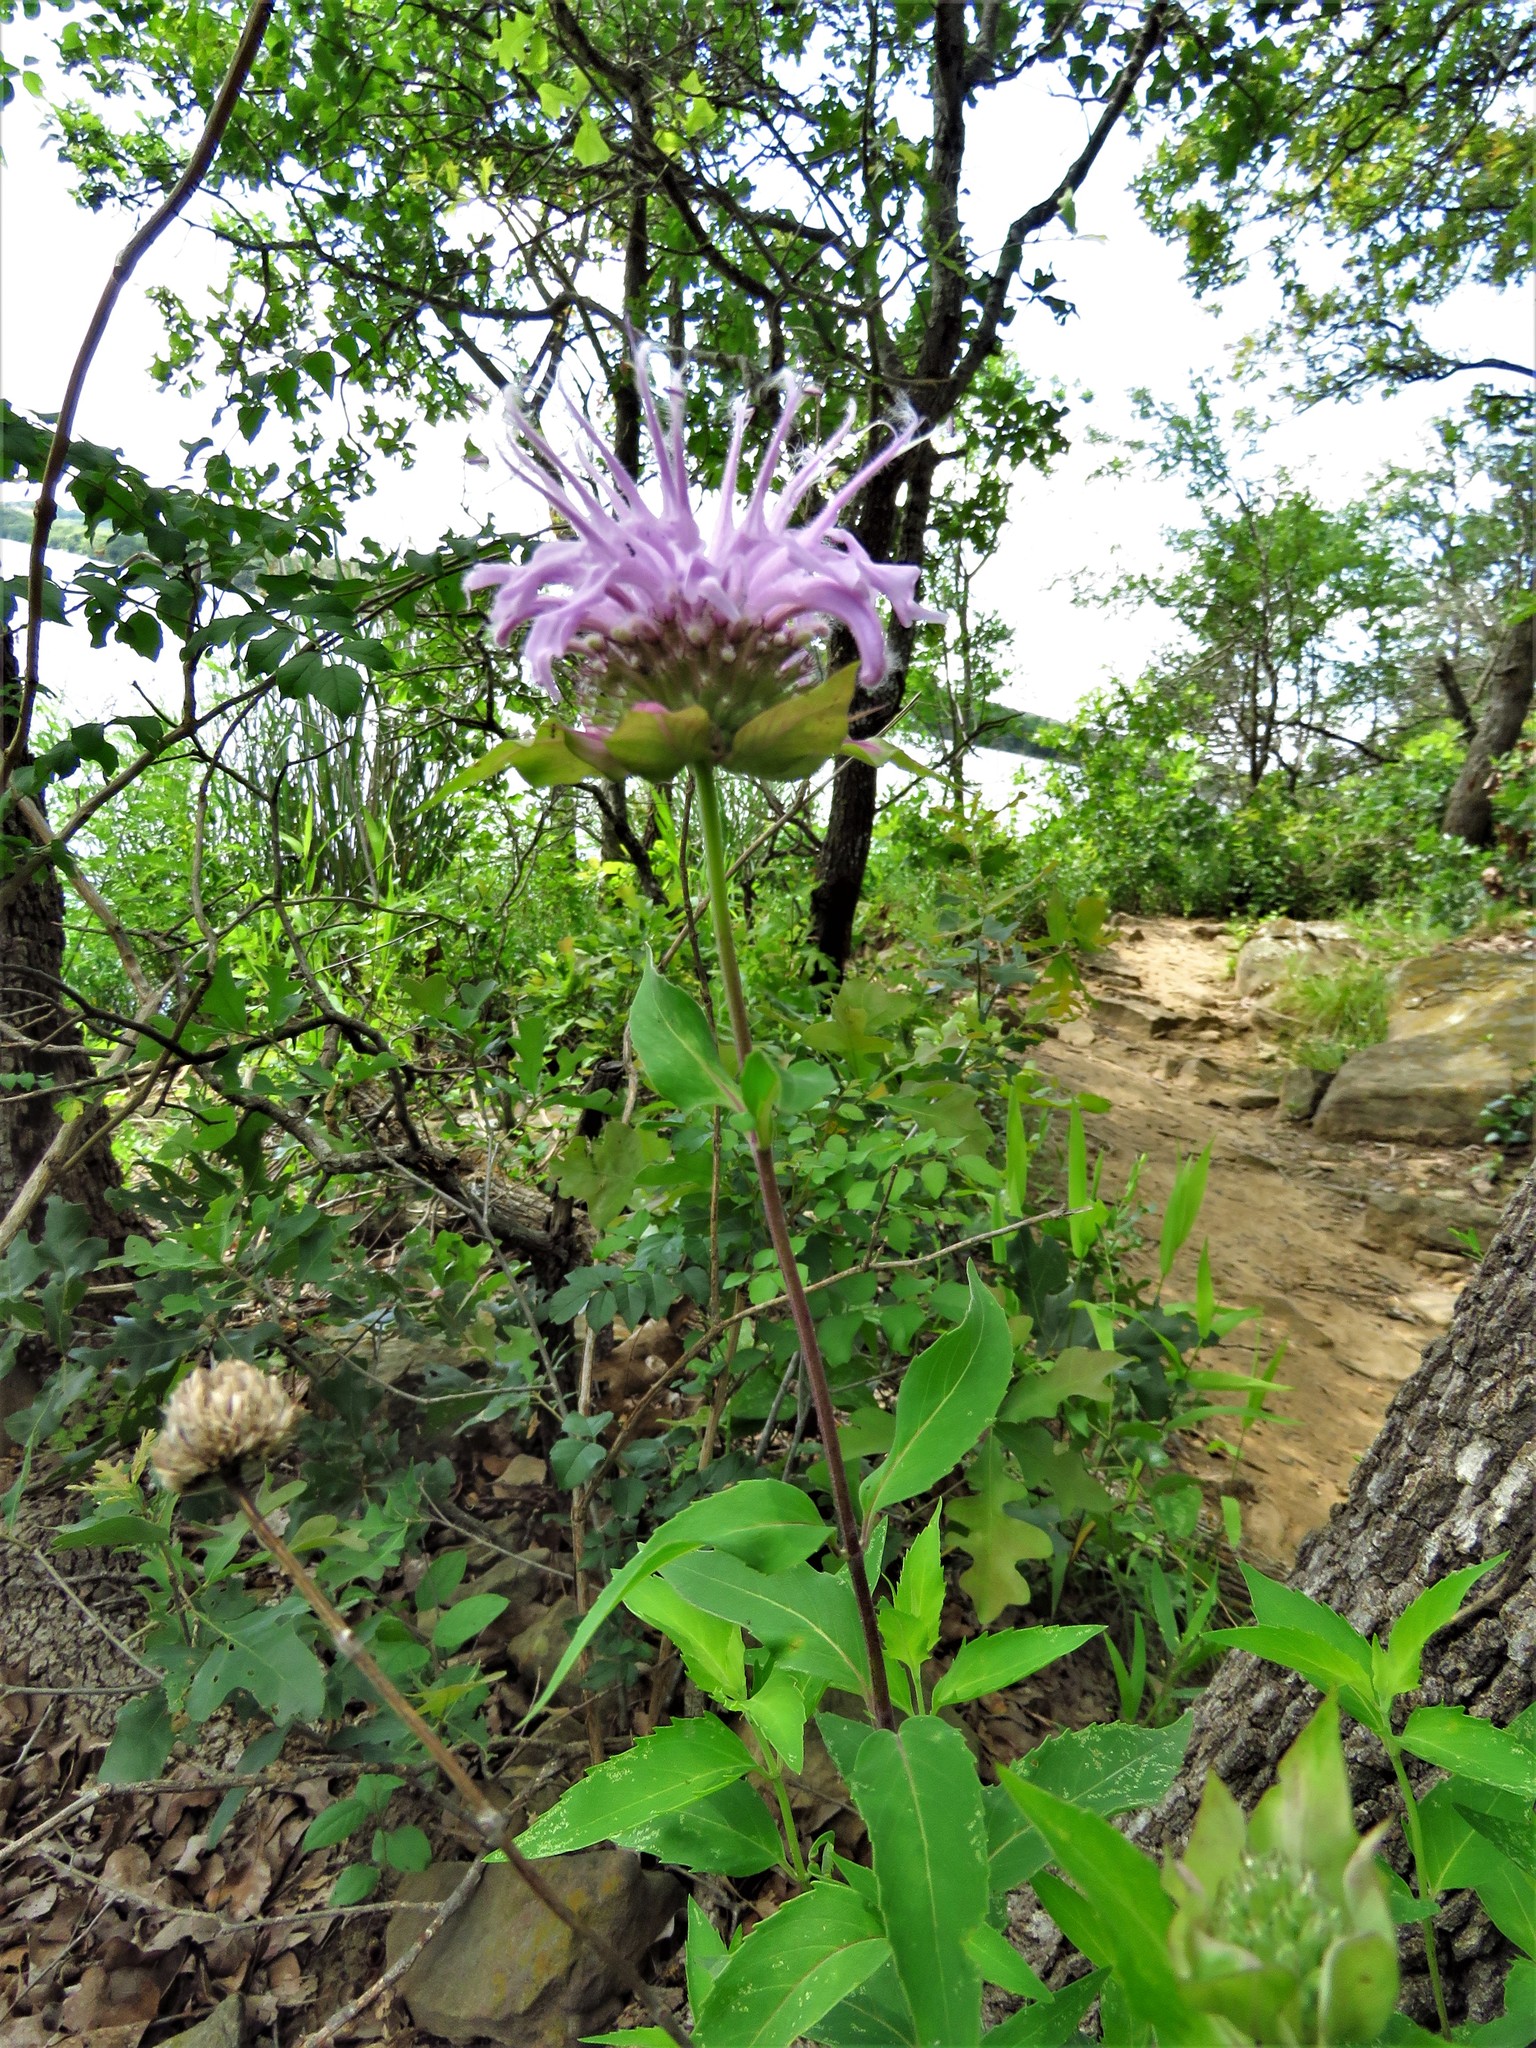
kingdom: Plantae
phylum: Tracheophyta
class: Magnoliopsida
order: Lamiales
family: Lamiaceae
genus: Monarda
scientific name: Monarda fistulosa
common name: Purple beebalm
